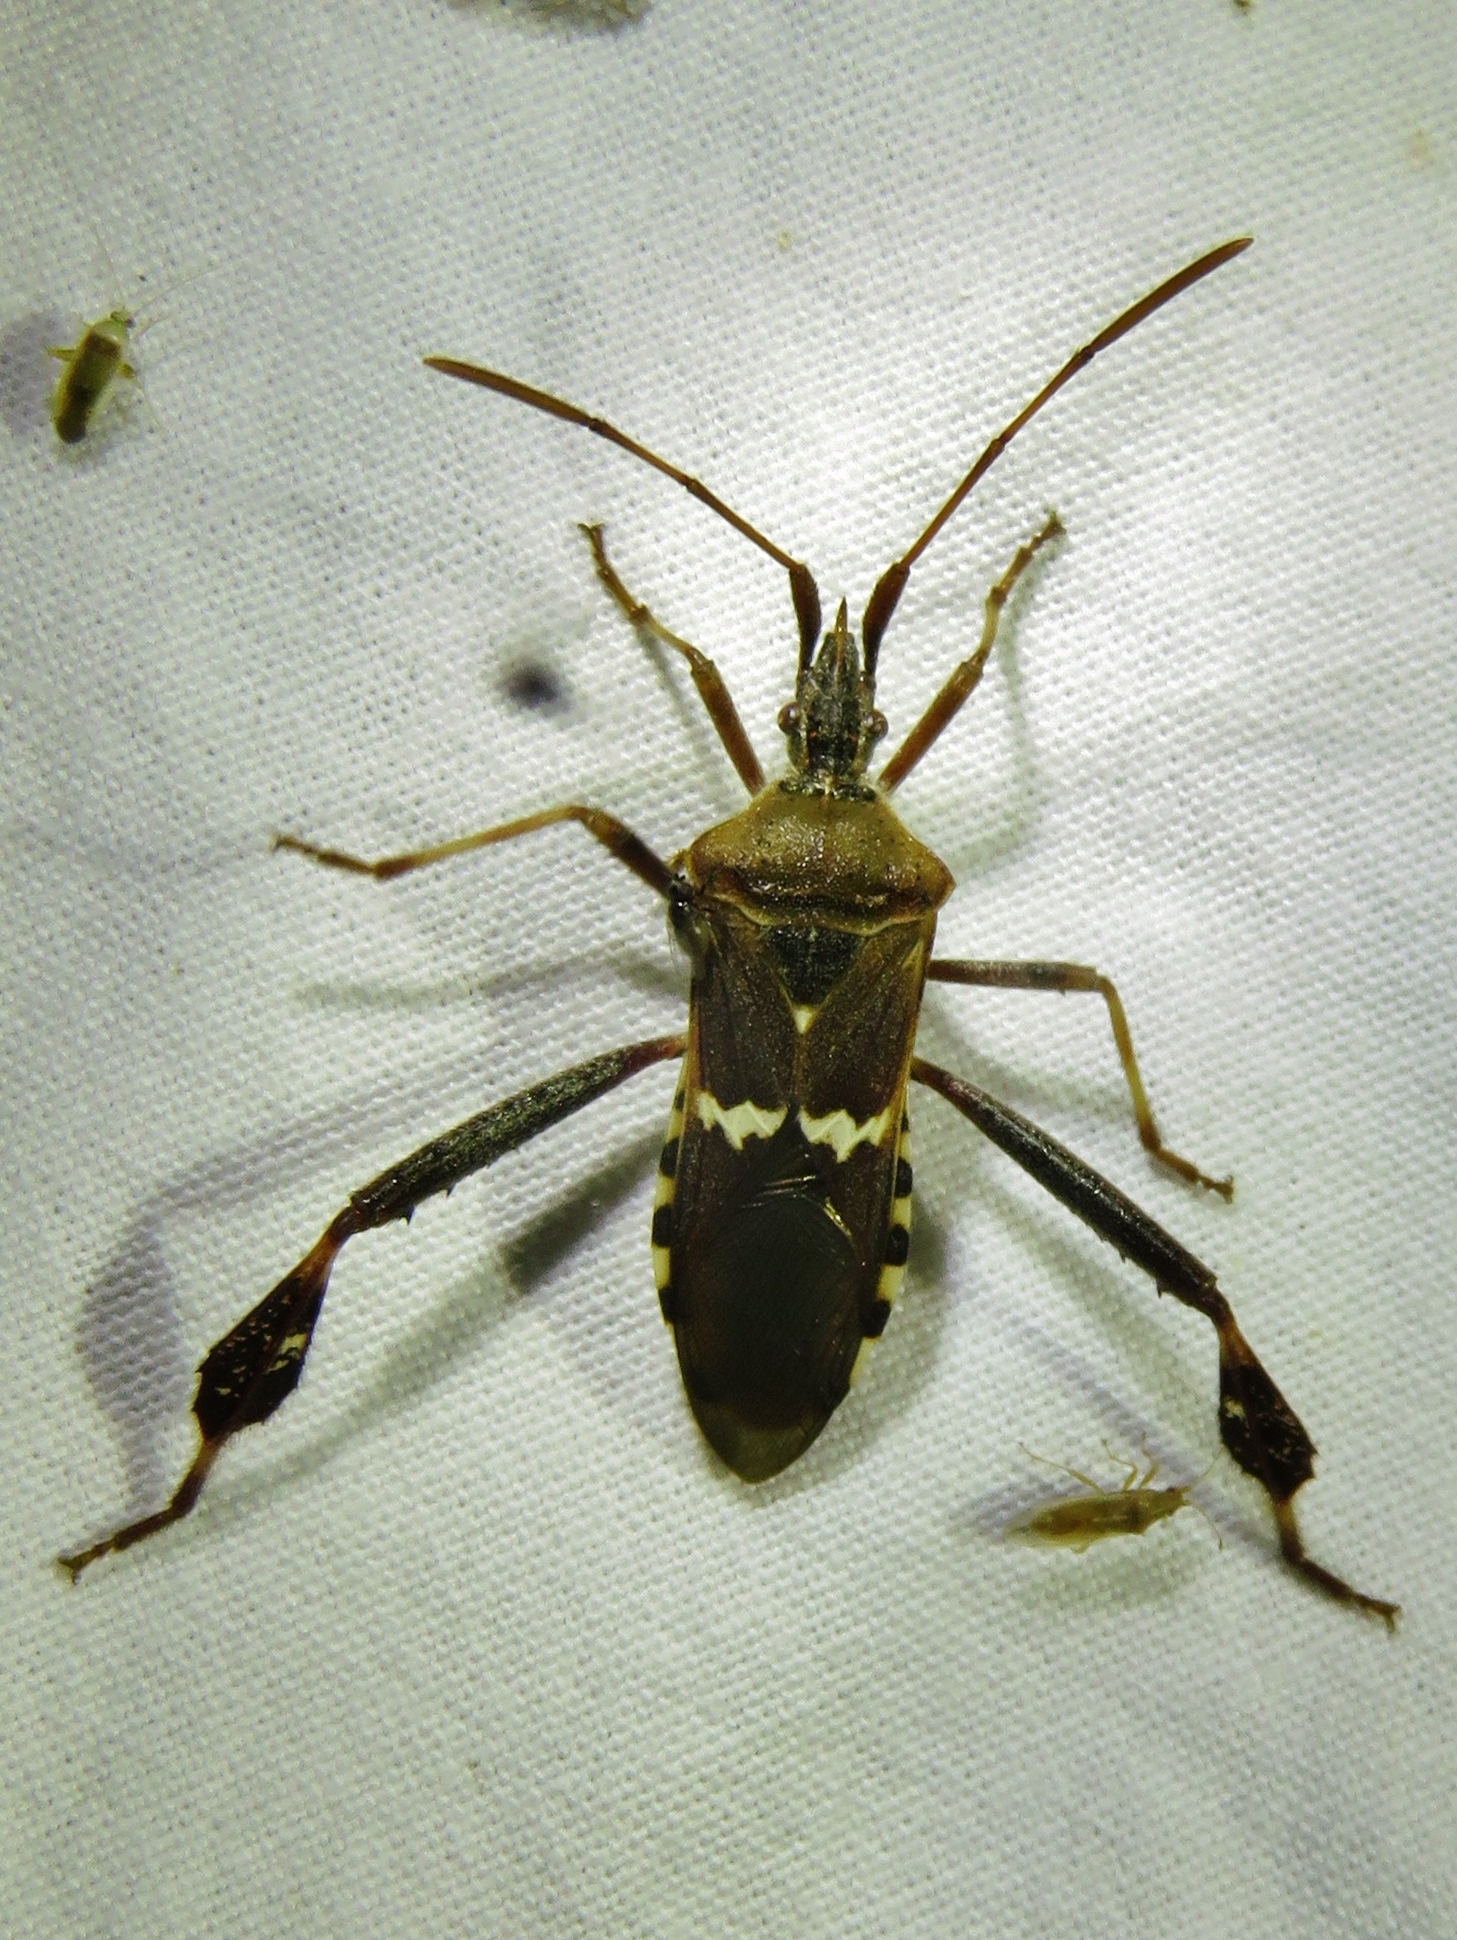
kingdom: Animalia
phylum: Arthropoda
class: Insecta
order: Hemiptera
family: Coreidae
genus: Leptoglossus
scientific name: Leptoglossus clypealis
